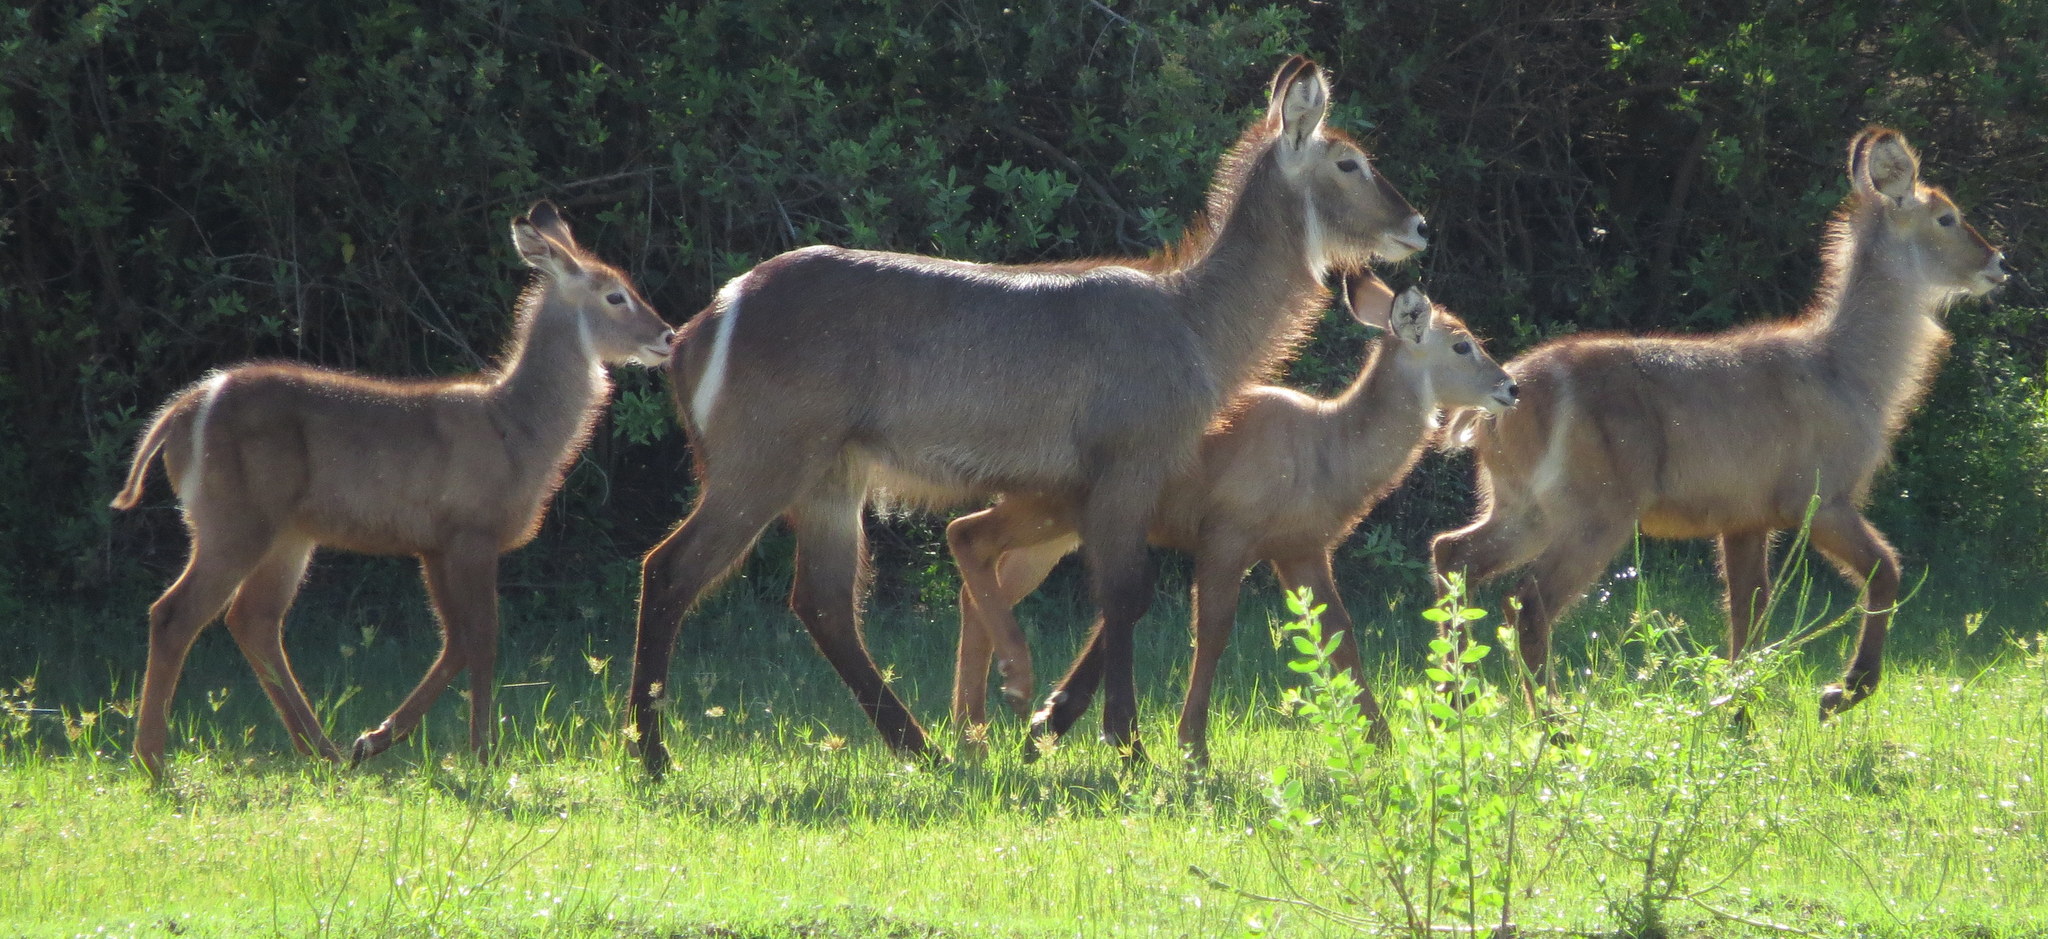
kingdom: Animalia
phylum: Chordata
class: Mammalia
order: Artiodactyla
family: Bovidae
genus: Kobus
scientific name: Kobus ellipsiprymnus
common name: Waterbuck
